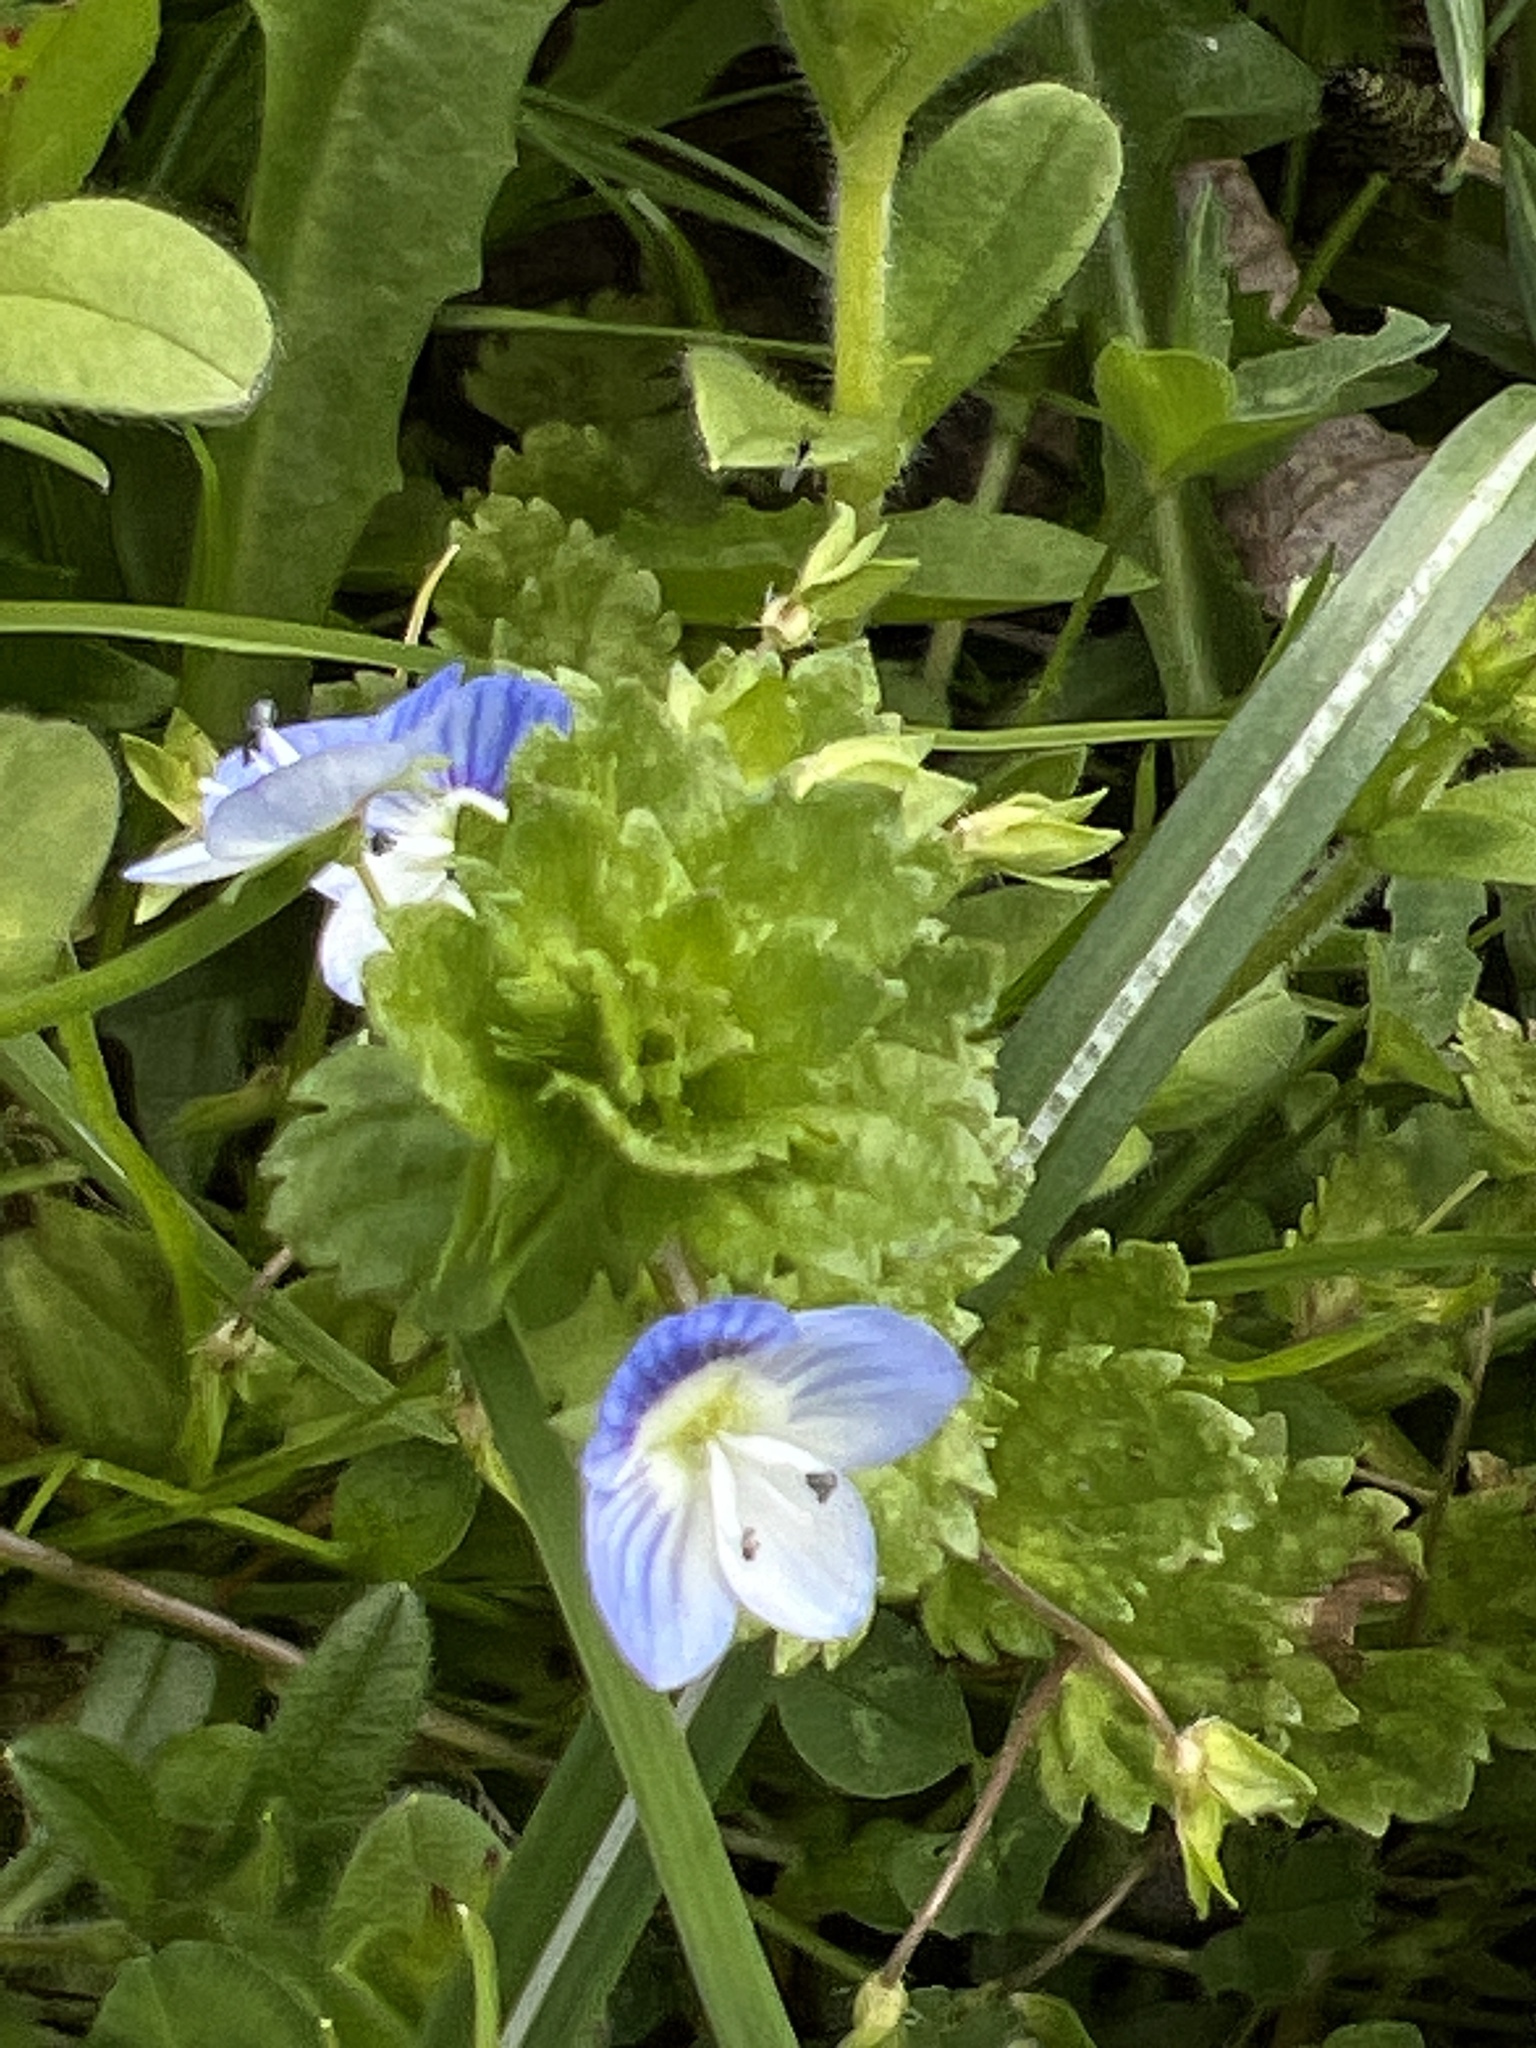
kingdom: Plantae
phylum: Tracheophyta
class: Magnoliopsida
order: Lamiales
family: Plantaginaceae
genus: Veronica
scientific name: Veronica persica
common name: Common field-speedwell
